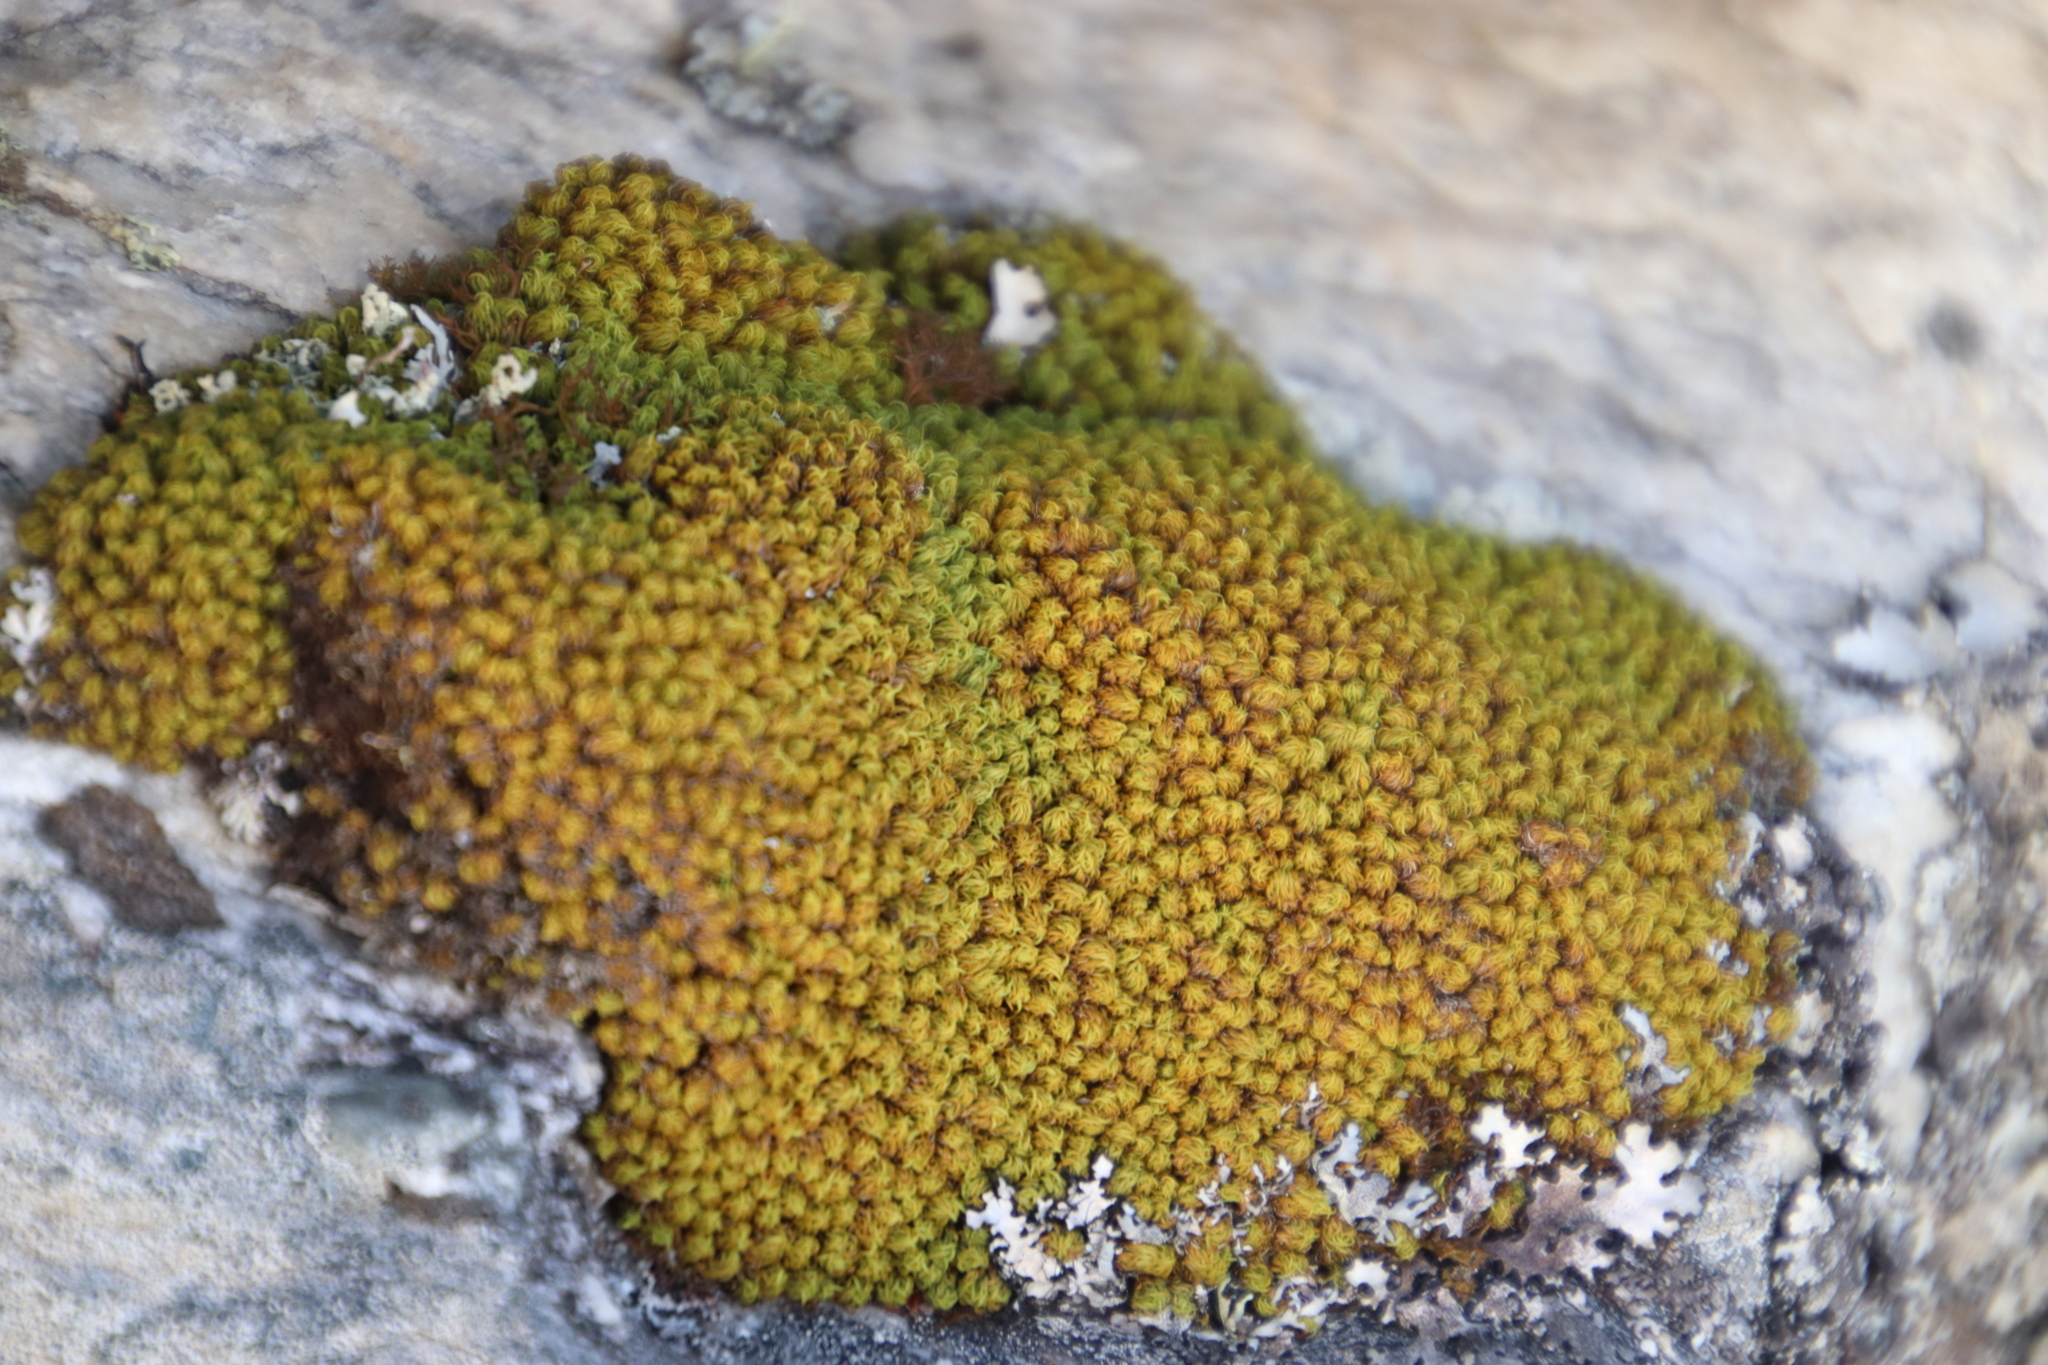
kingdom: Plantae
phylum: Bryophyta
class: Bryopsida
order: Dicranales
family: Hypodontiaceae
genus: Hypodontium
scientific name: Hypodontium pomiforme
